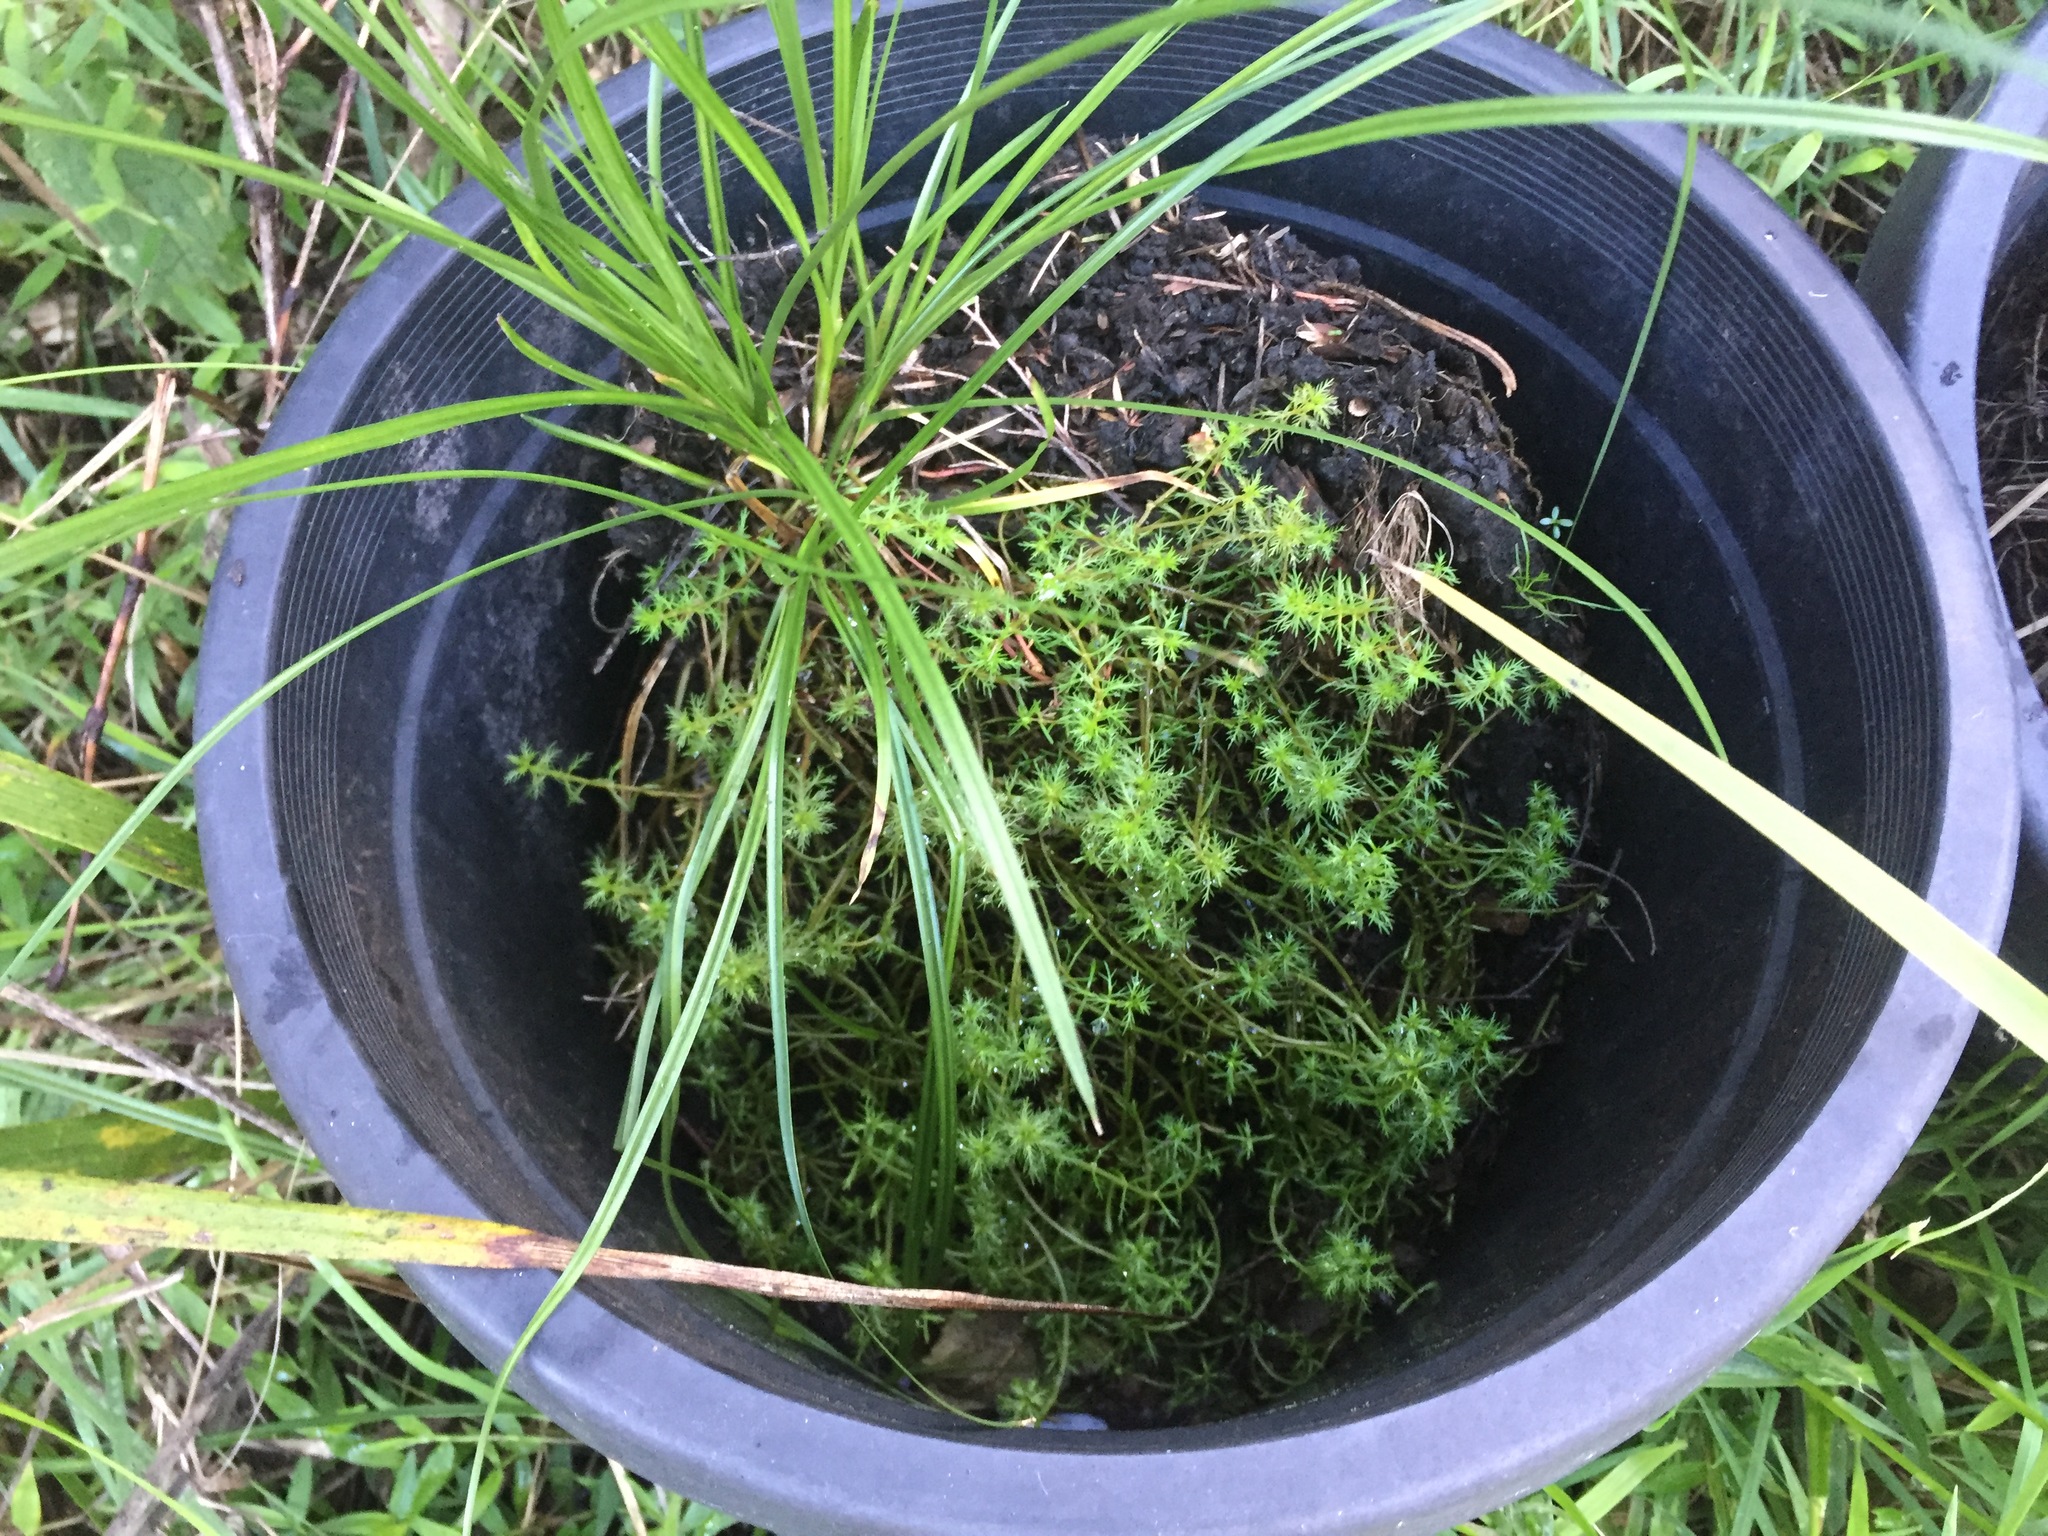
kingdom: Plantae
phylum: Tracheophyta
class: Magnoliopsida
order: Saxifragales
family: Haloragaceae
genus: Myriophyllum
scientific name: Myriophyllum propinquum
